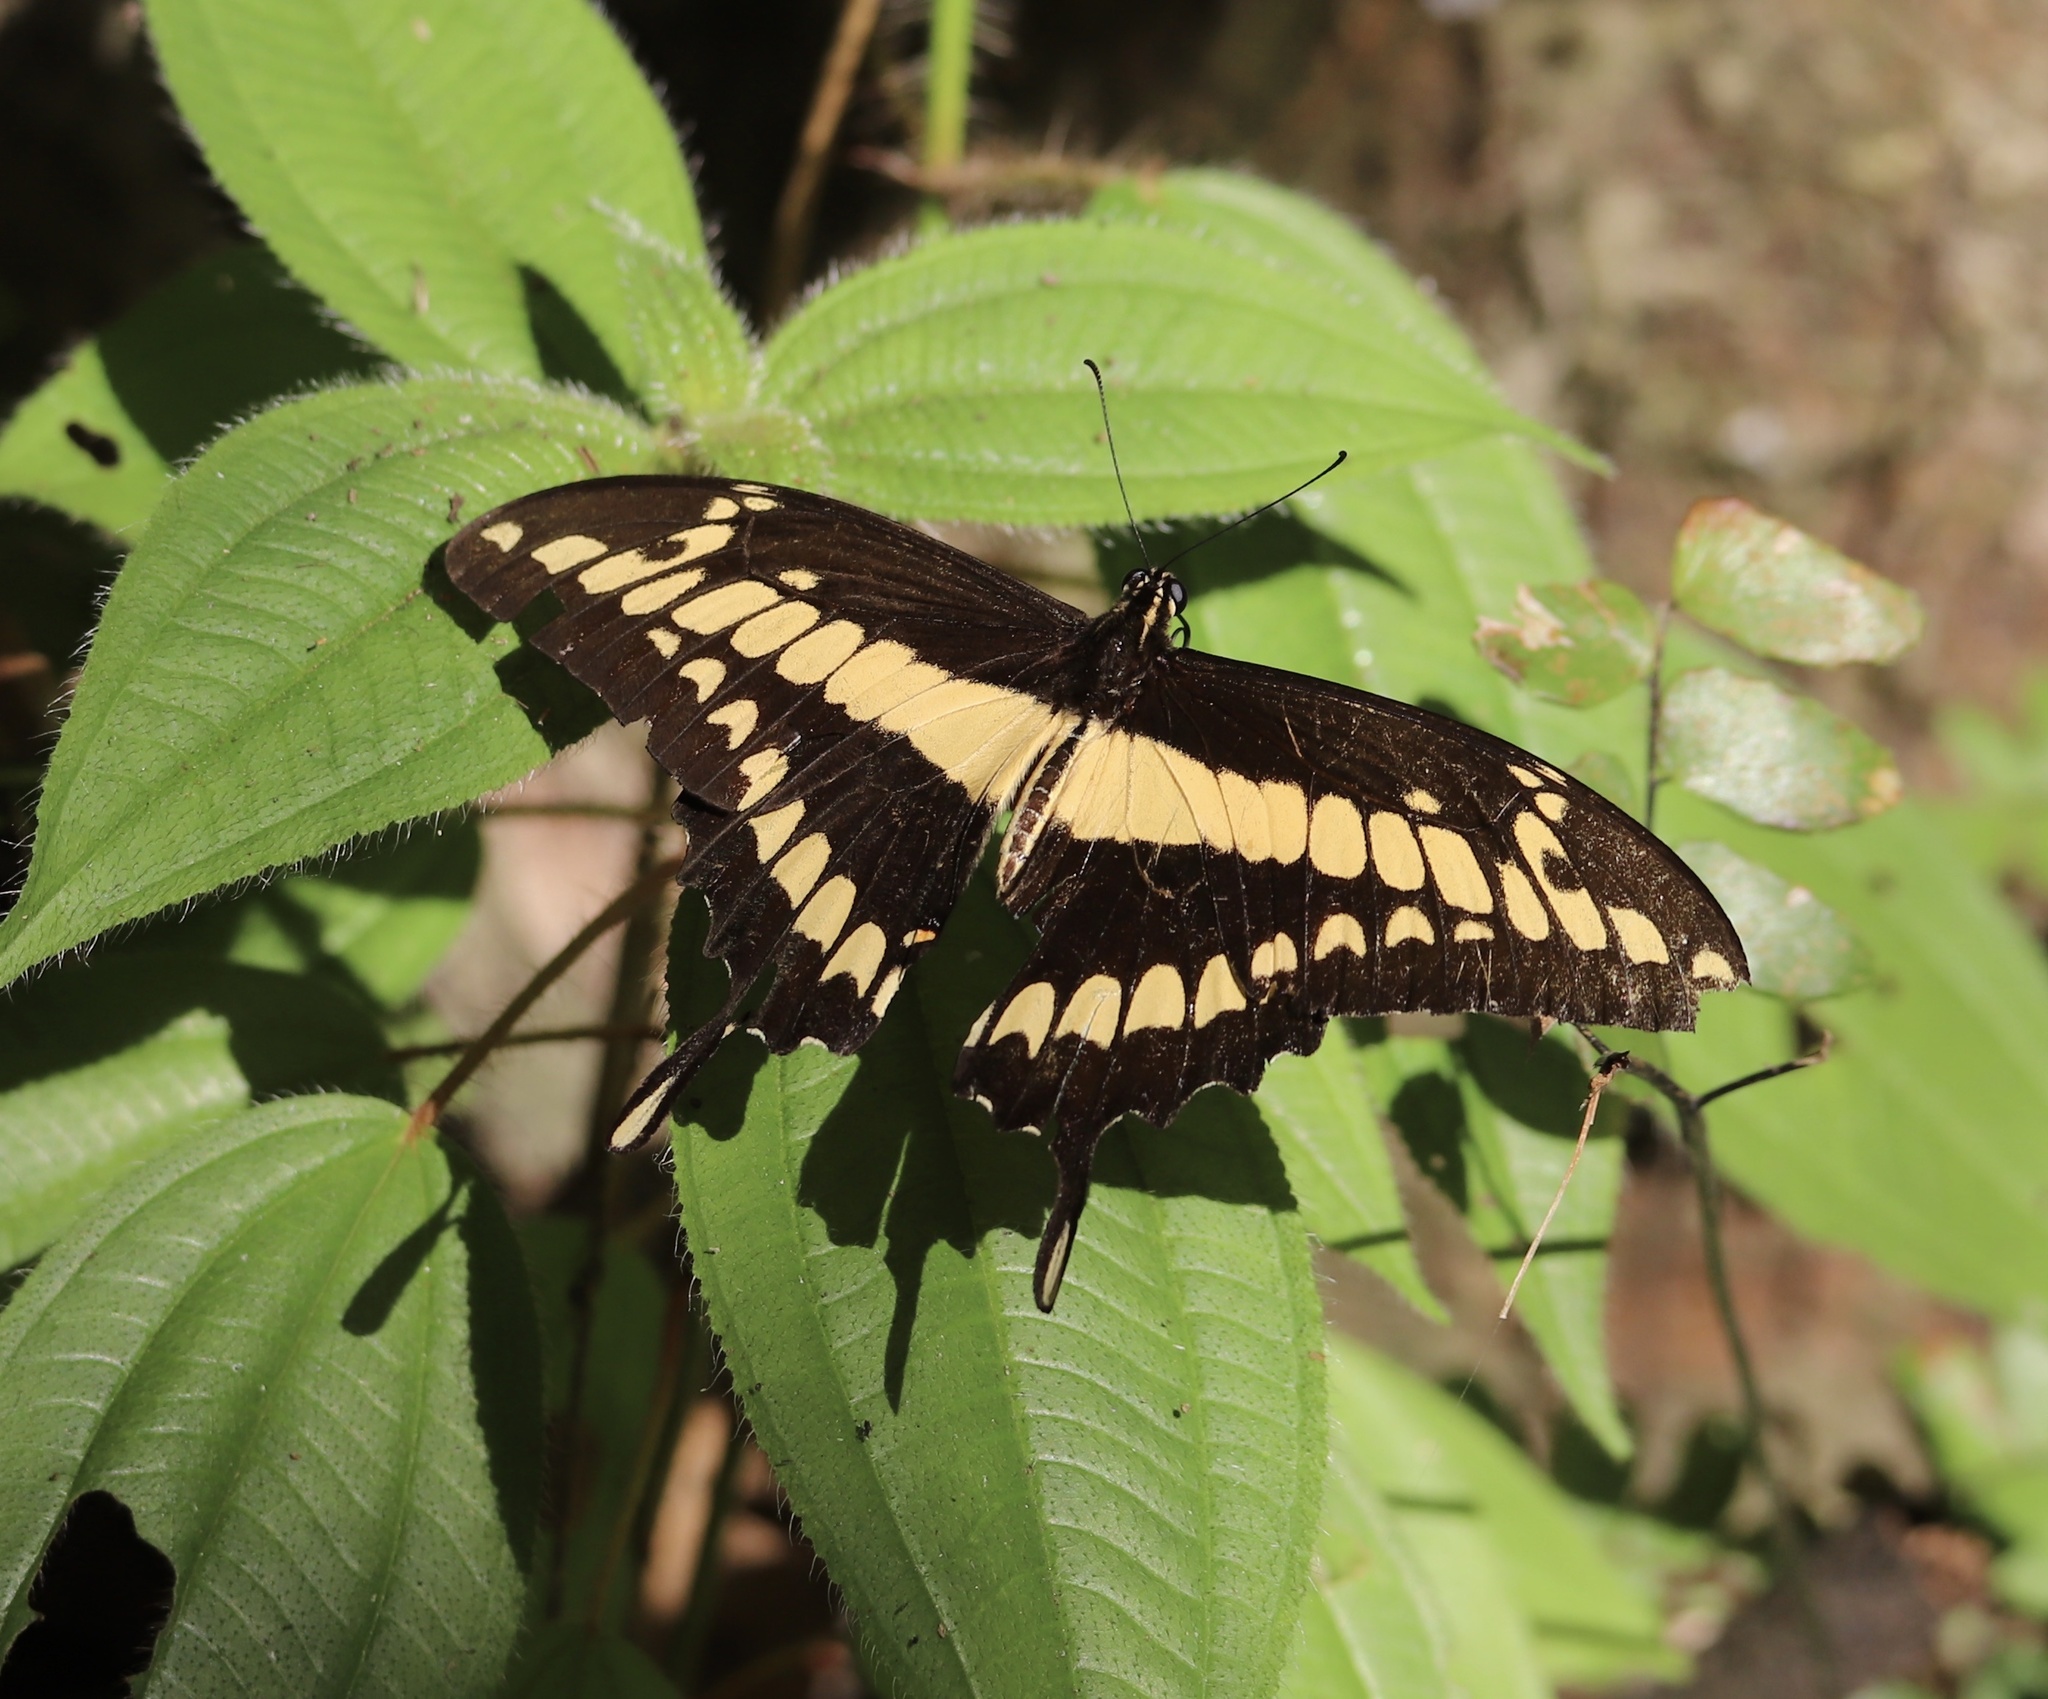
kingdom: Animalia
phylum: Arthropoda
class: Insecta
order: Lepidoptera
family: Papilionidae
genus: Papilio
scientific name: Papilio thoas
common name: King swallowtail
